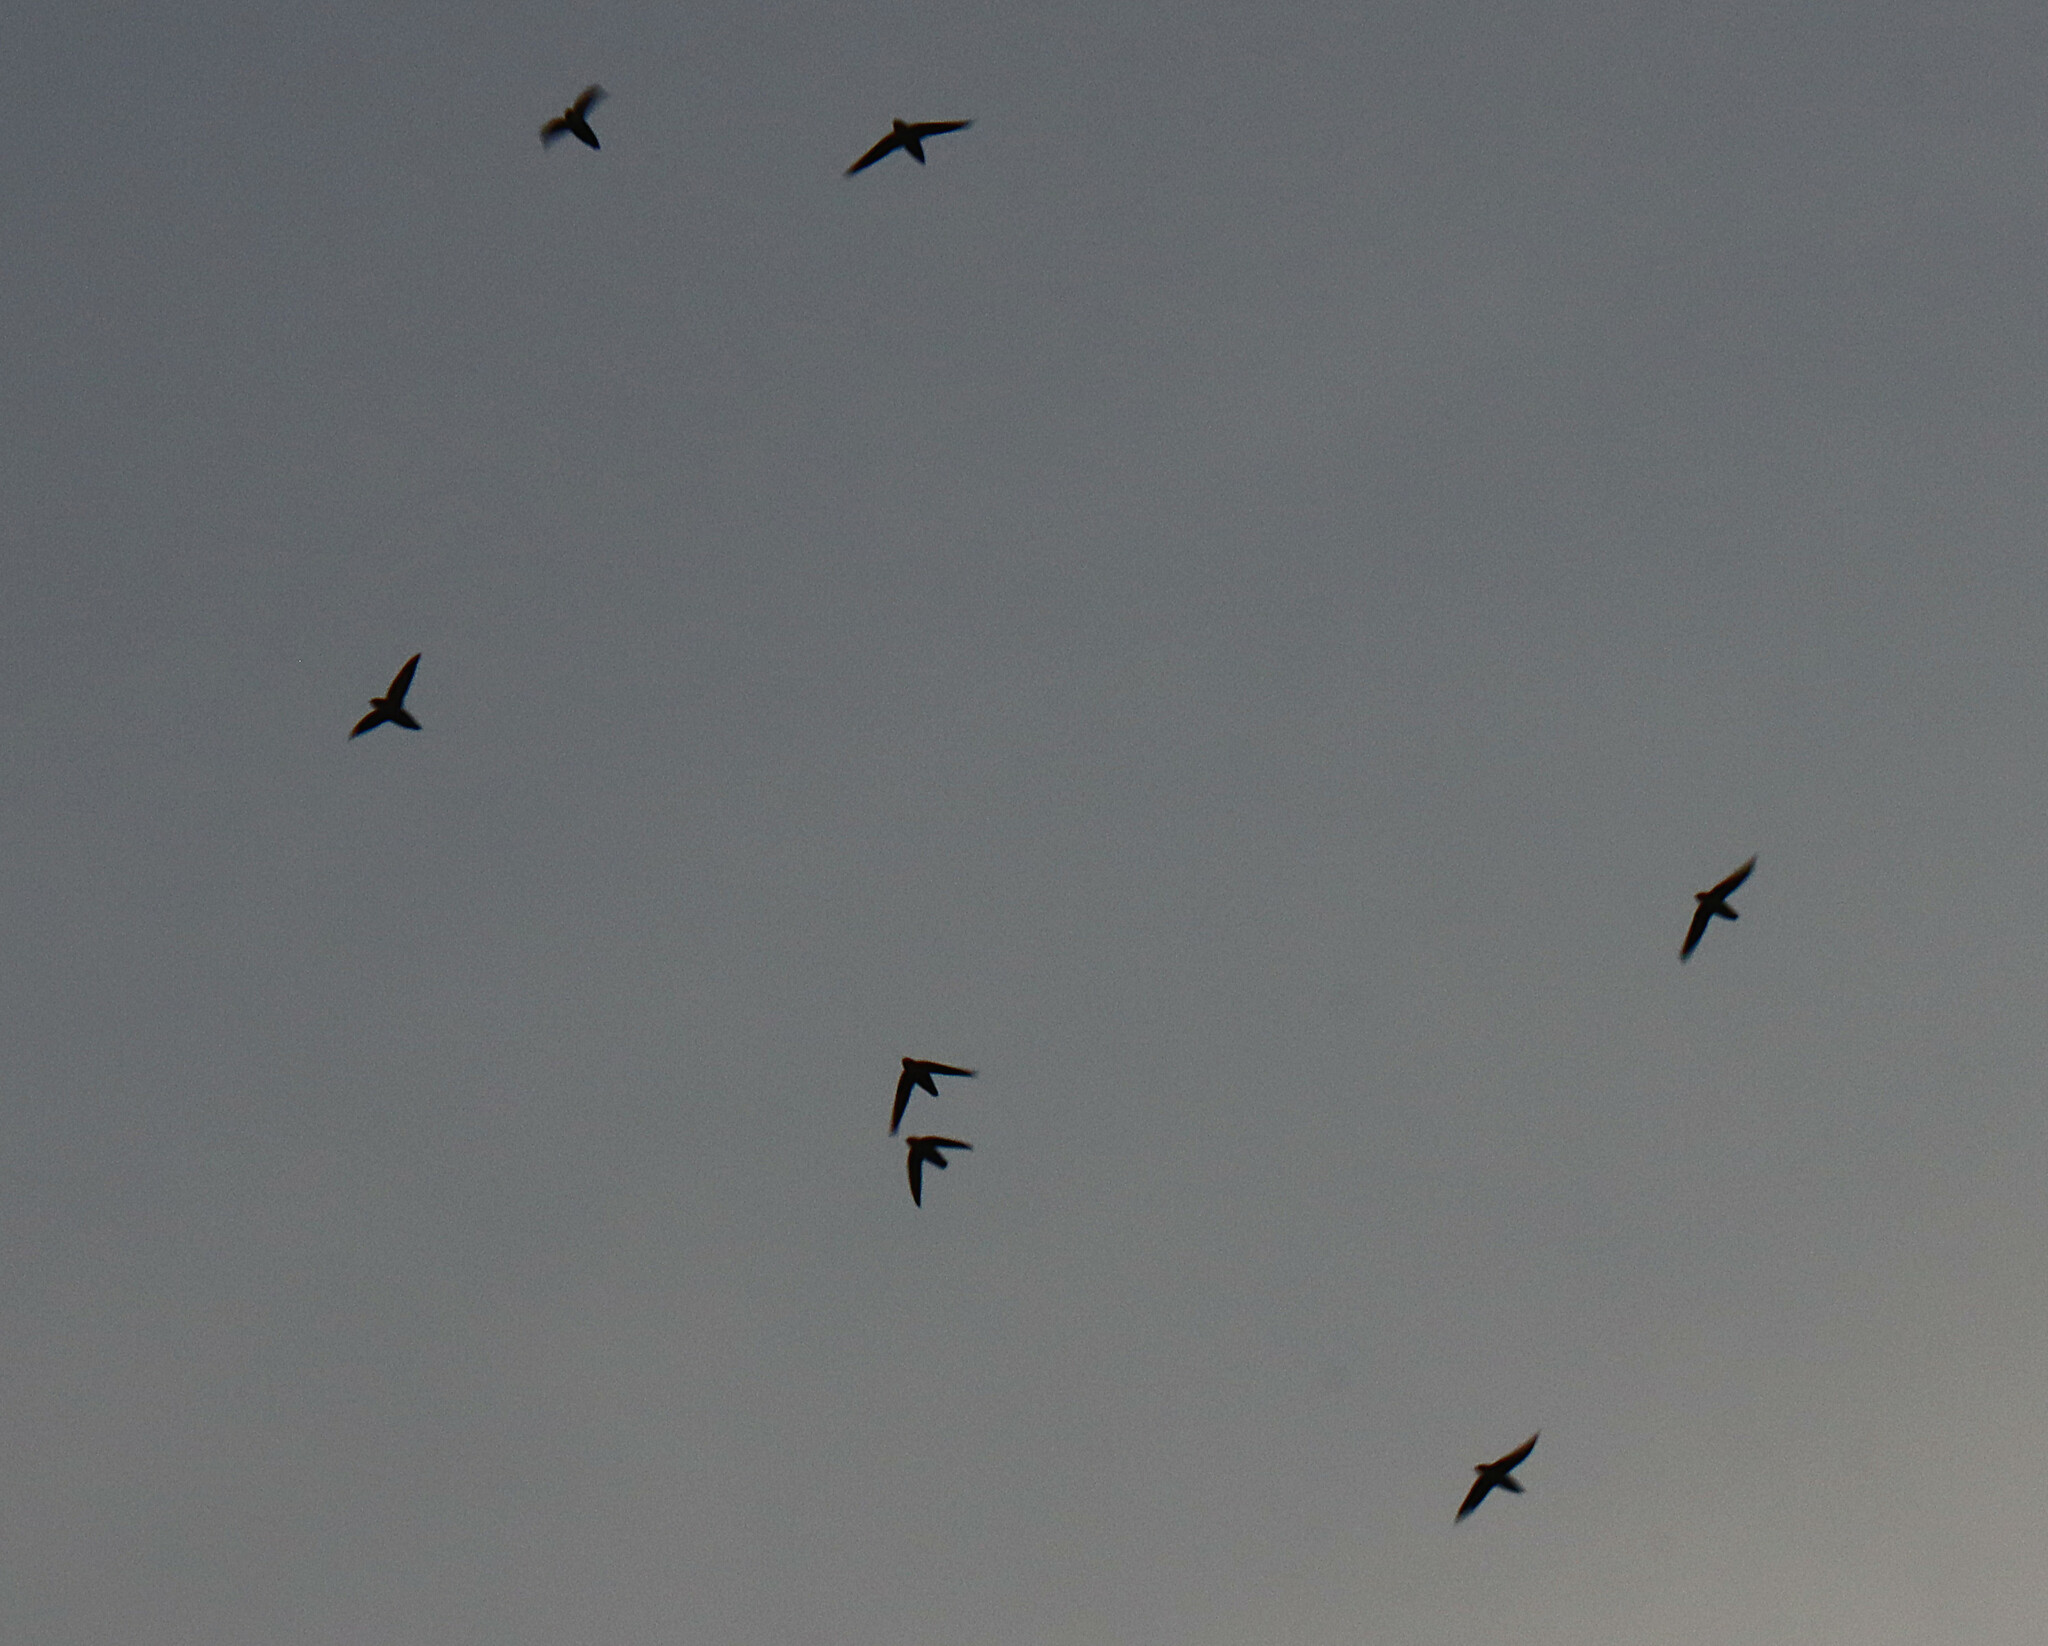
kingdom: Animalia
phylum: Chordata
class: Aves
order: Apodiformes
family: Apodidae
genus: Chaetura
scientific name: Chaetura pelagica
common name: Chimney swift
